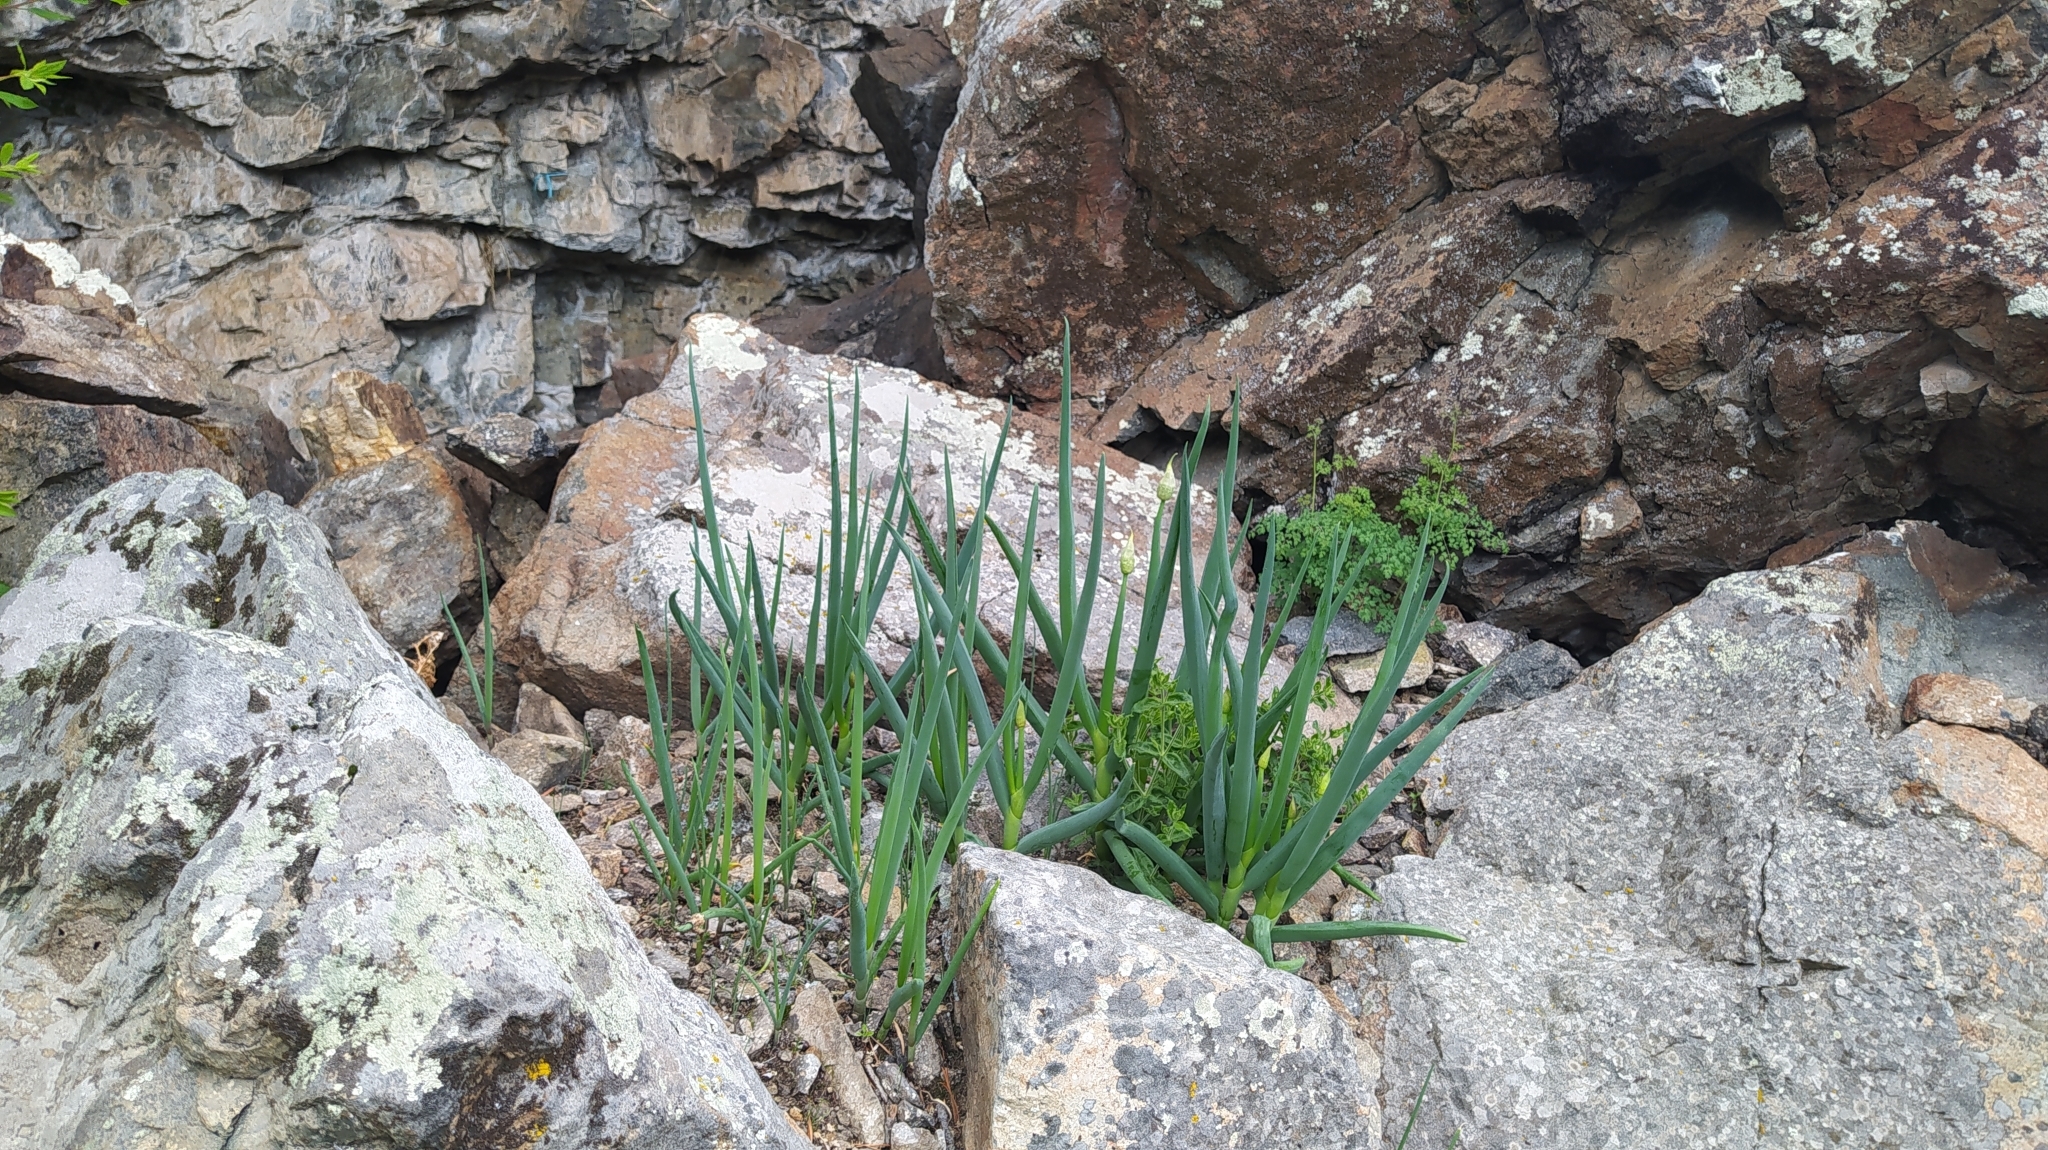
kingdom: Plantae
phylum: Tracheophyta
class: Liliopsida
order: Asparagales
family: Amaryllidaceae
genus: Allium
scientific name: Allium altaicum
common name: Altai onion
